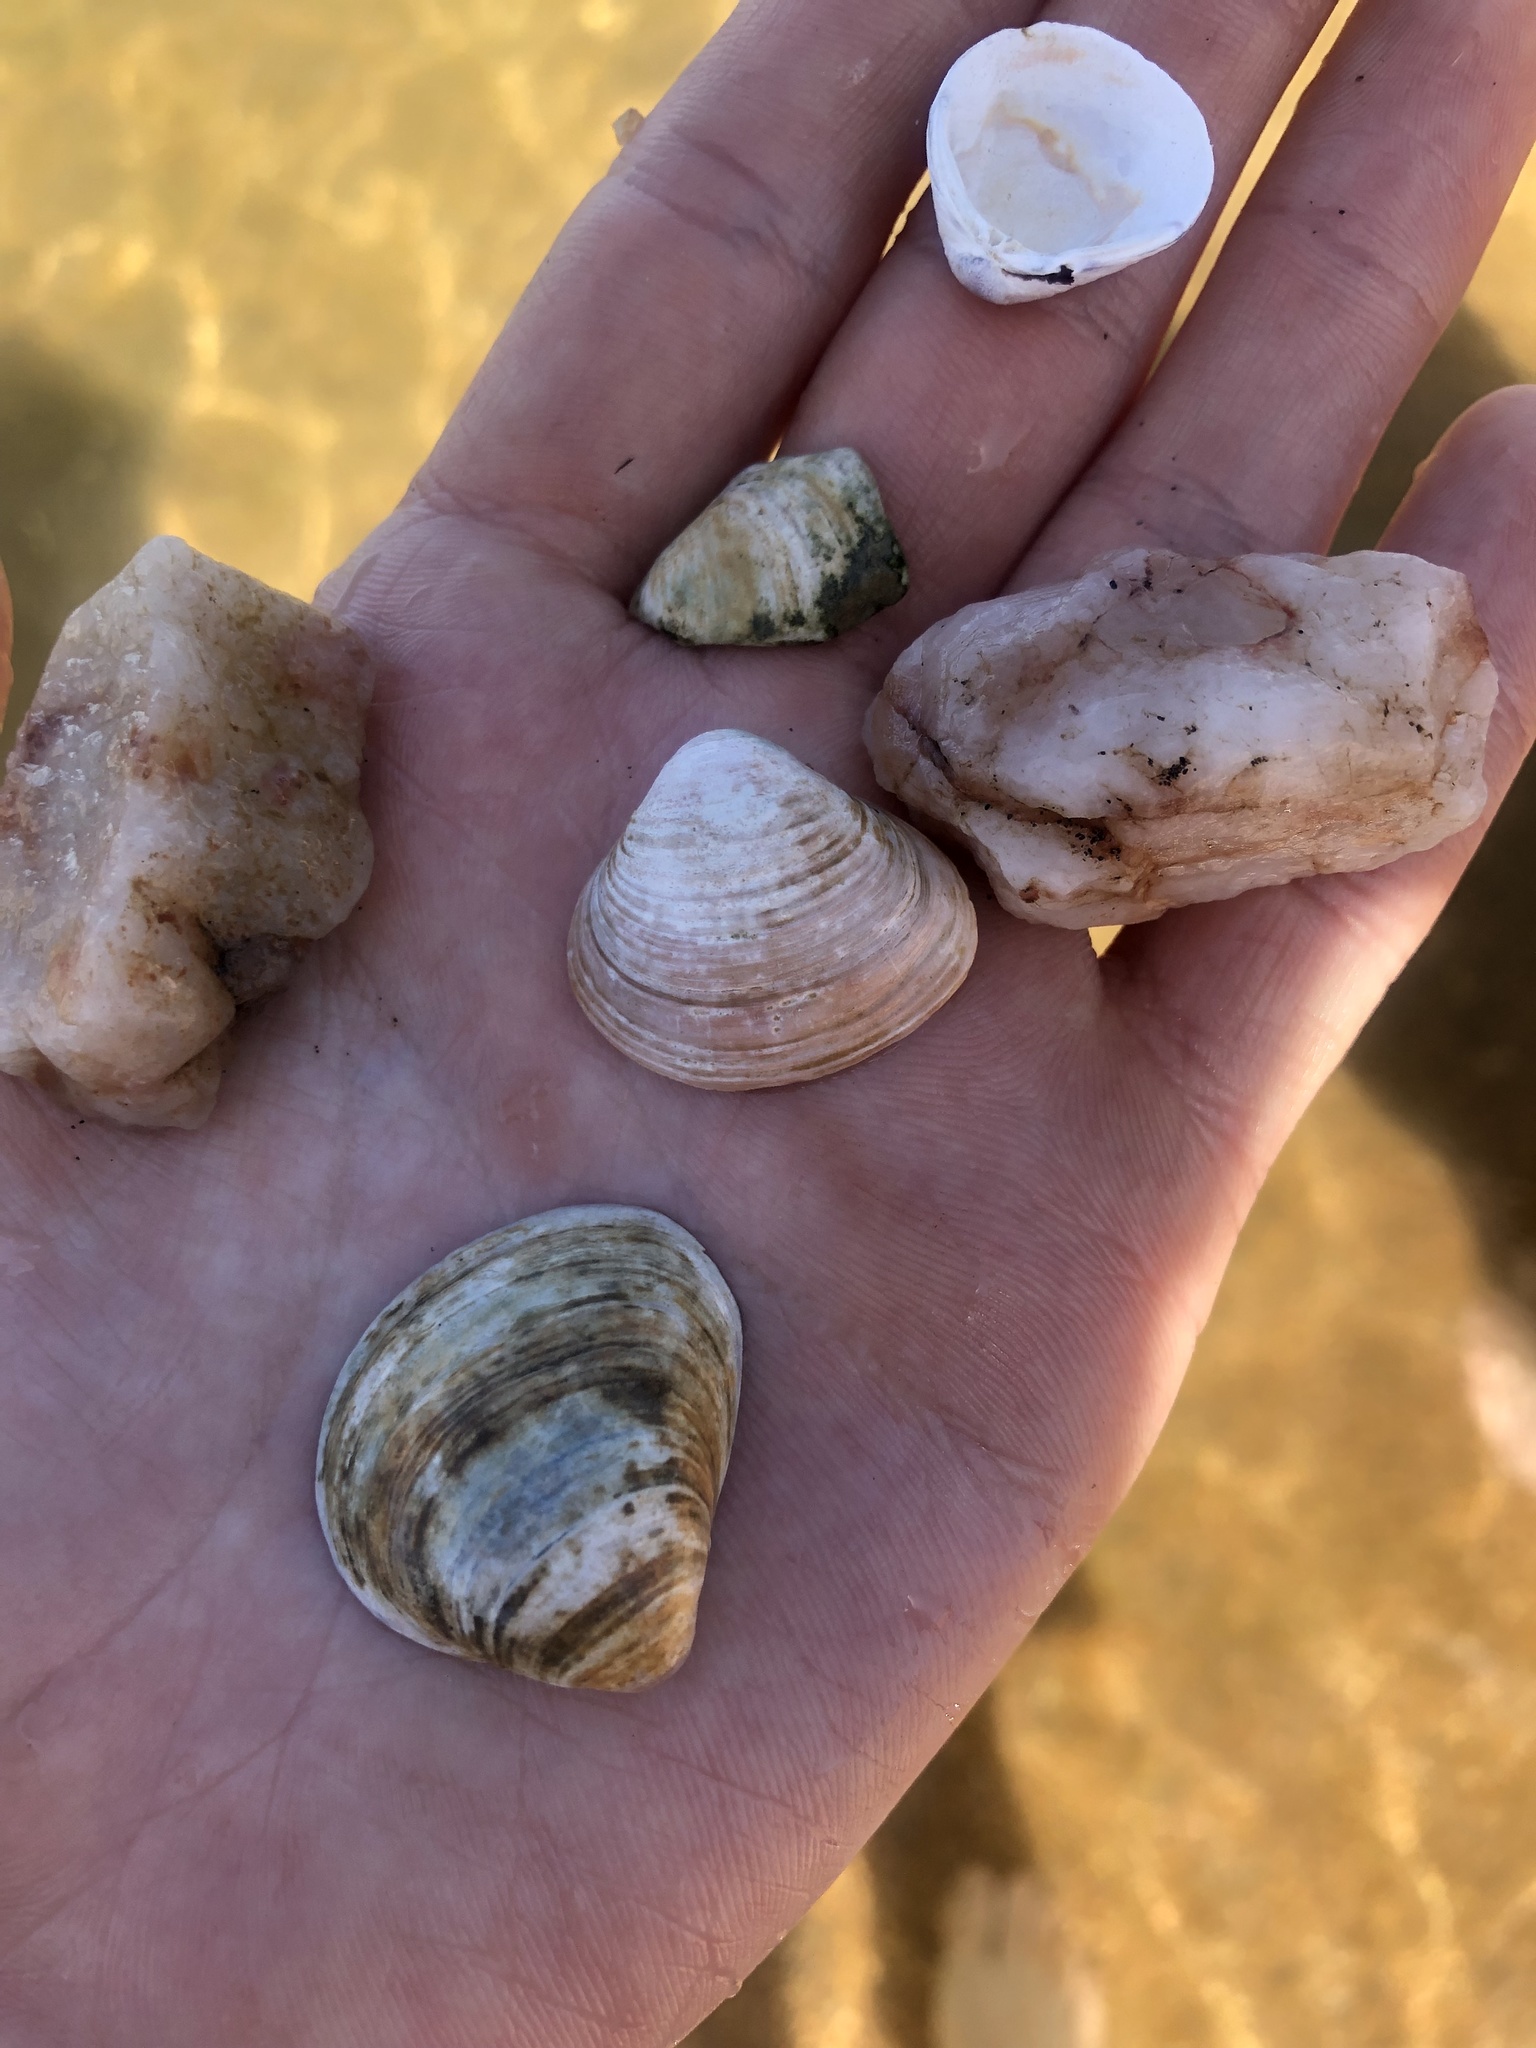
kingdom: Animalia
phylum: Mollusca
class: Bivalvia
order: Venerida
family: Cyrenidae
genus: Corbicula
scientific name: Corbicula fluminea
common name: Asian clam
